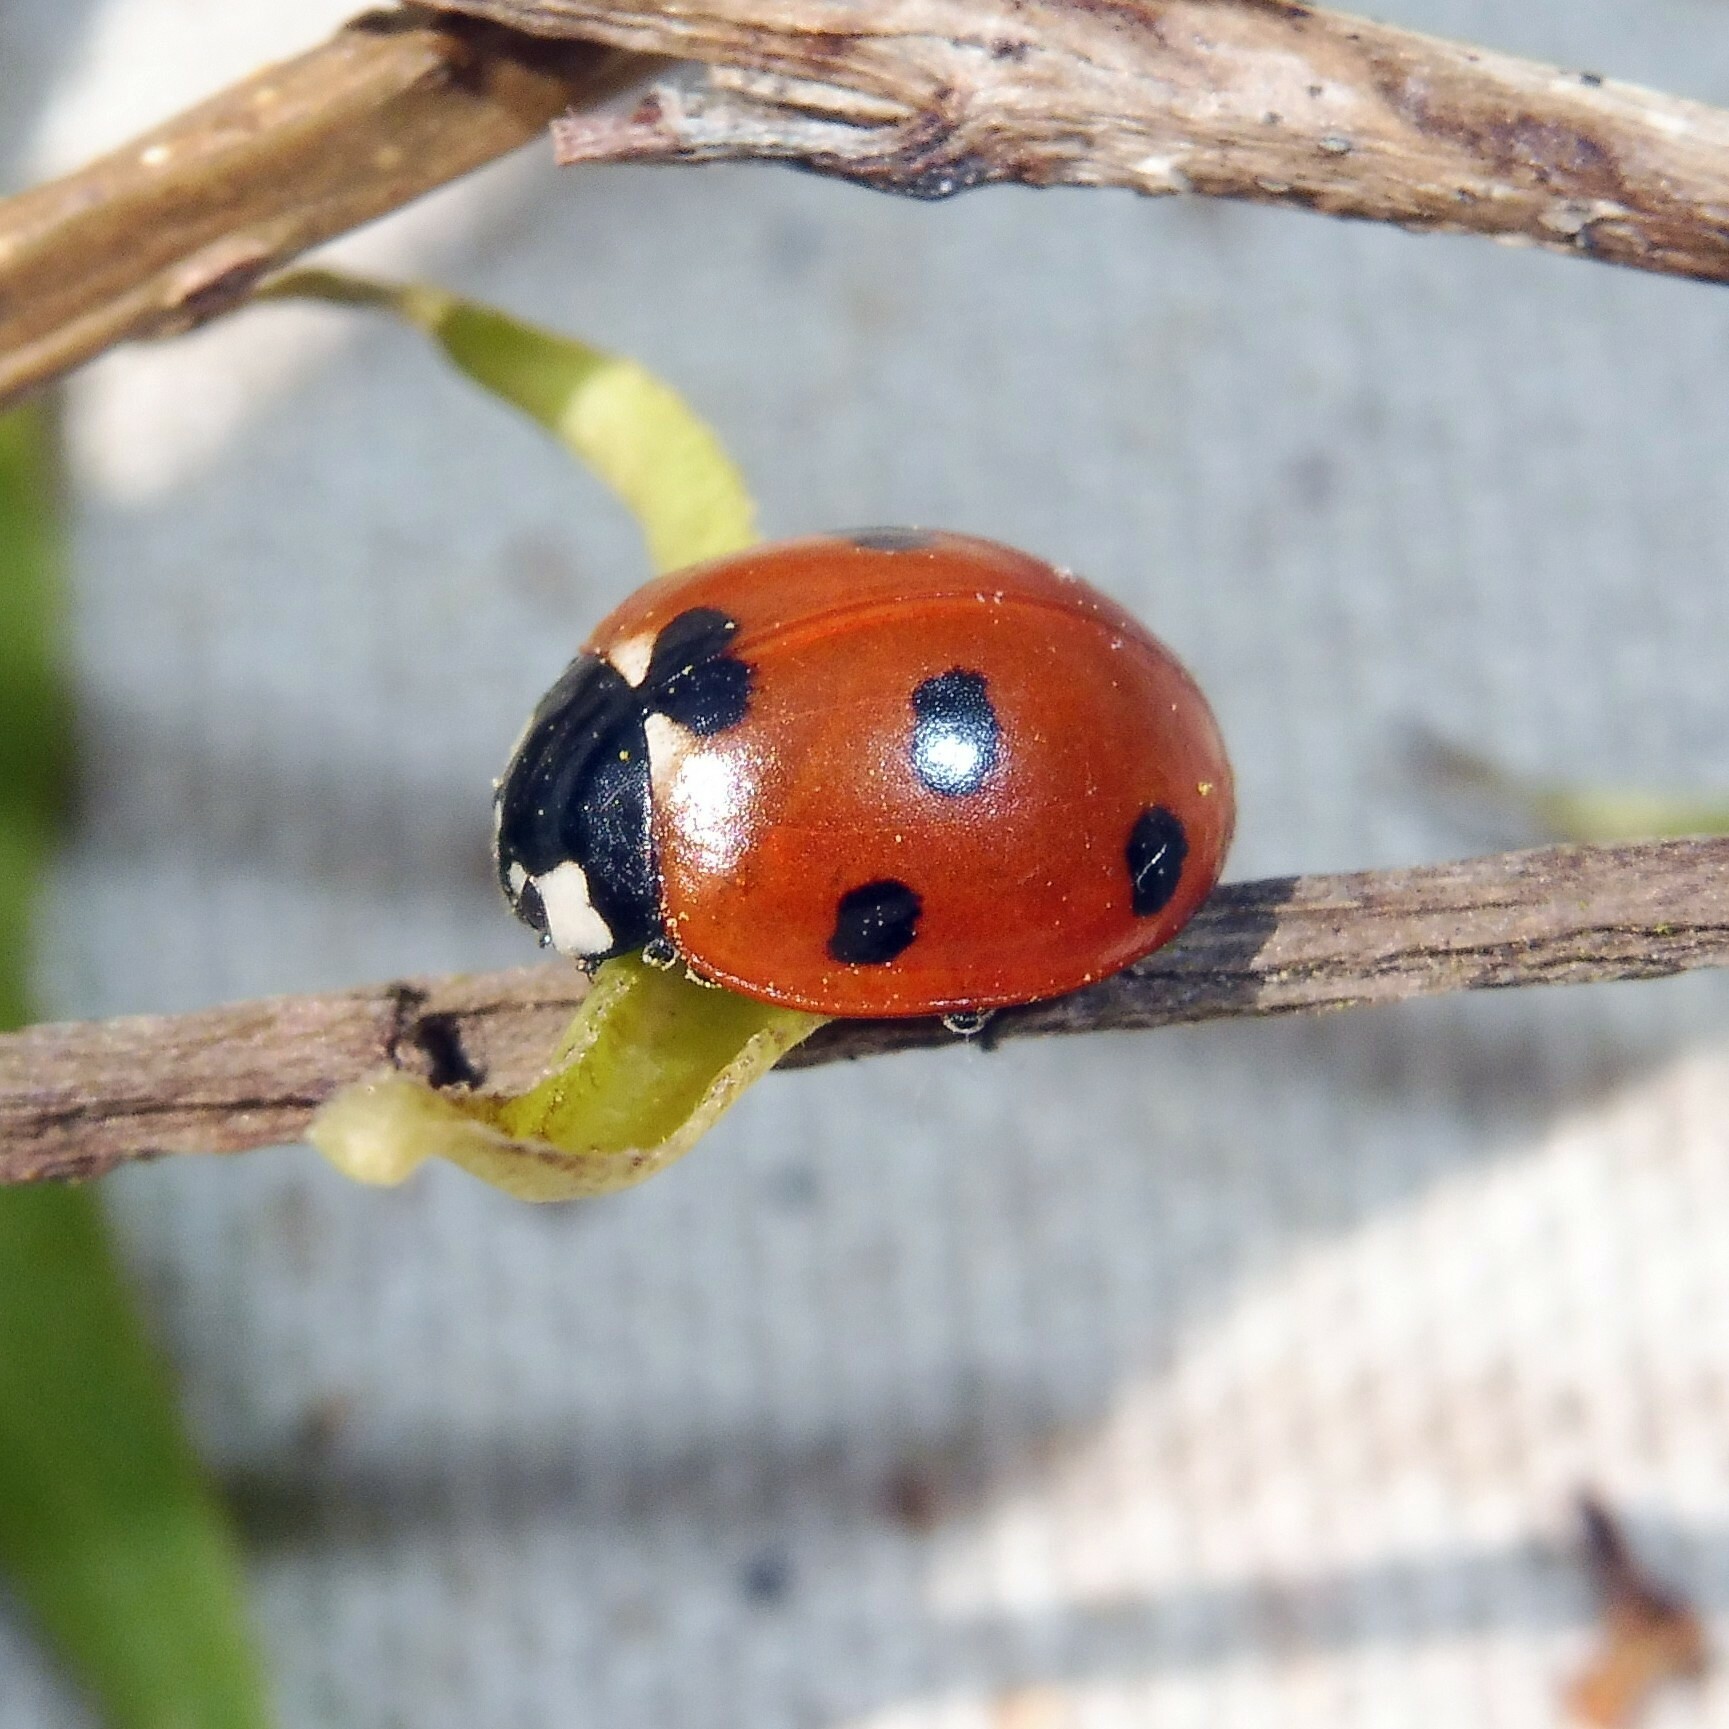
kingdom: Animalia
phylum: Arthropoda
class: Insecta
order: Coleoptera
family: Coccinellidae
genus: Coccinella
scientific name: Coccinella septempunctata
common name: Sevenspotted lady beetle
